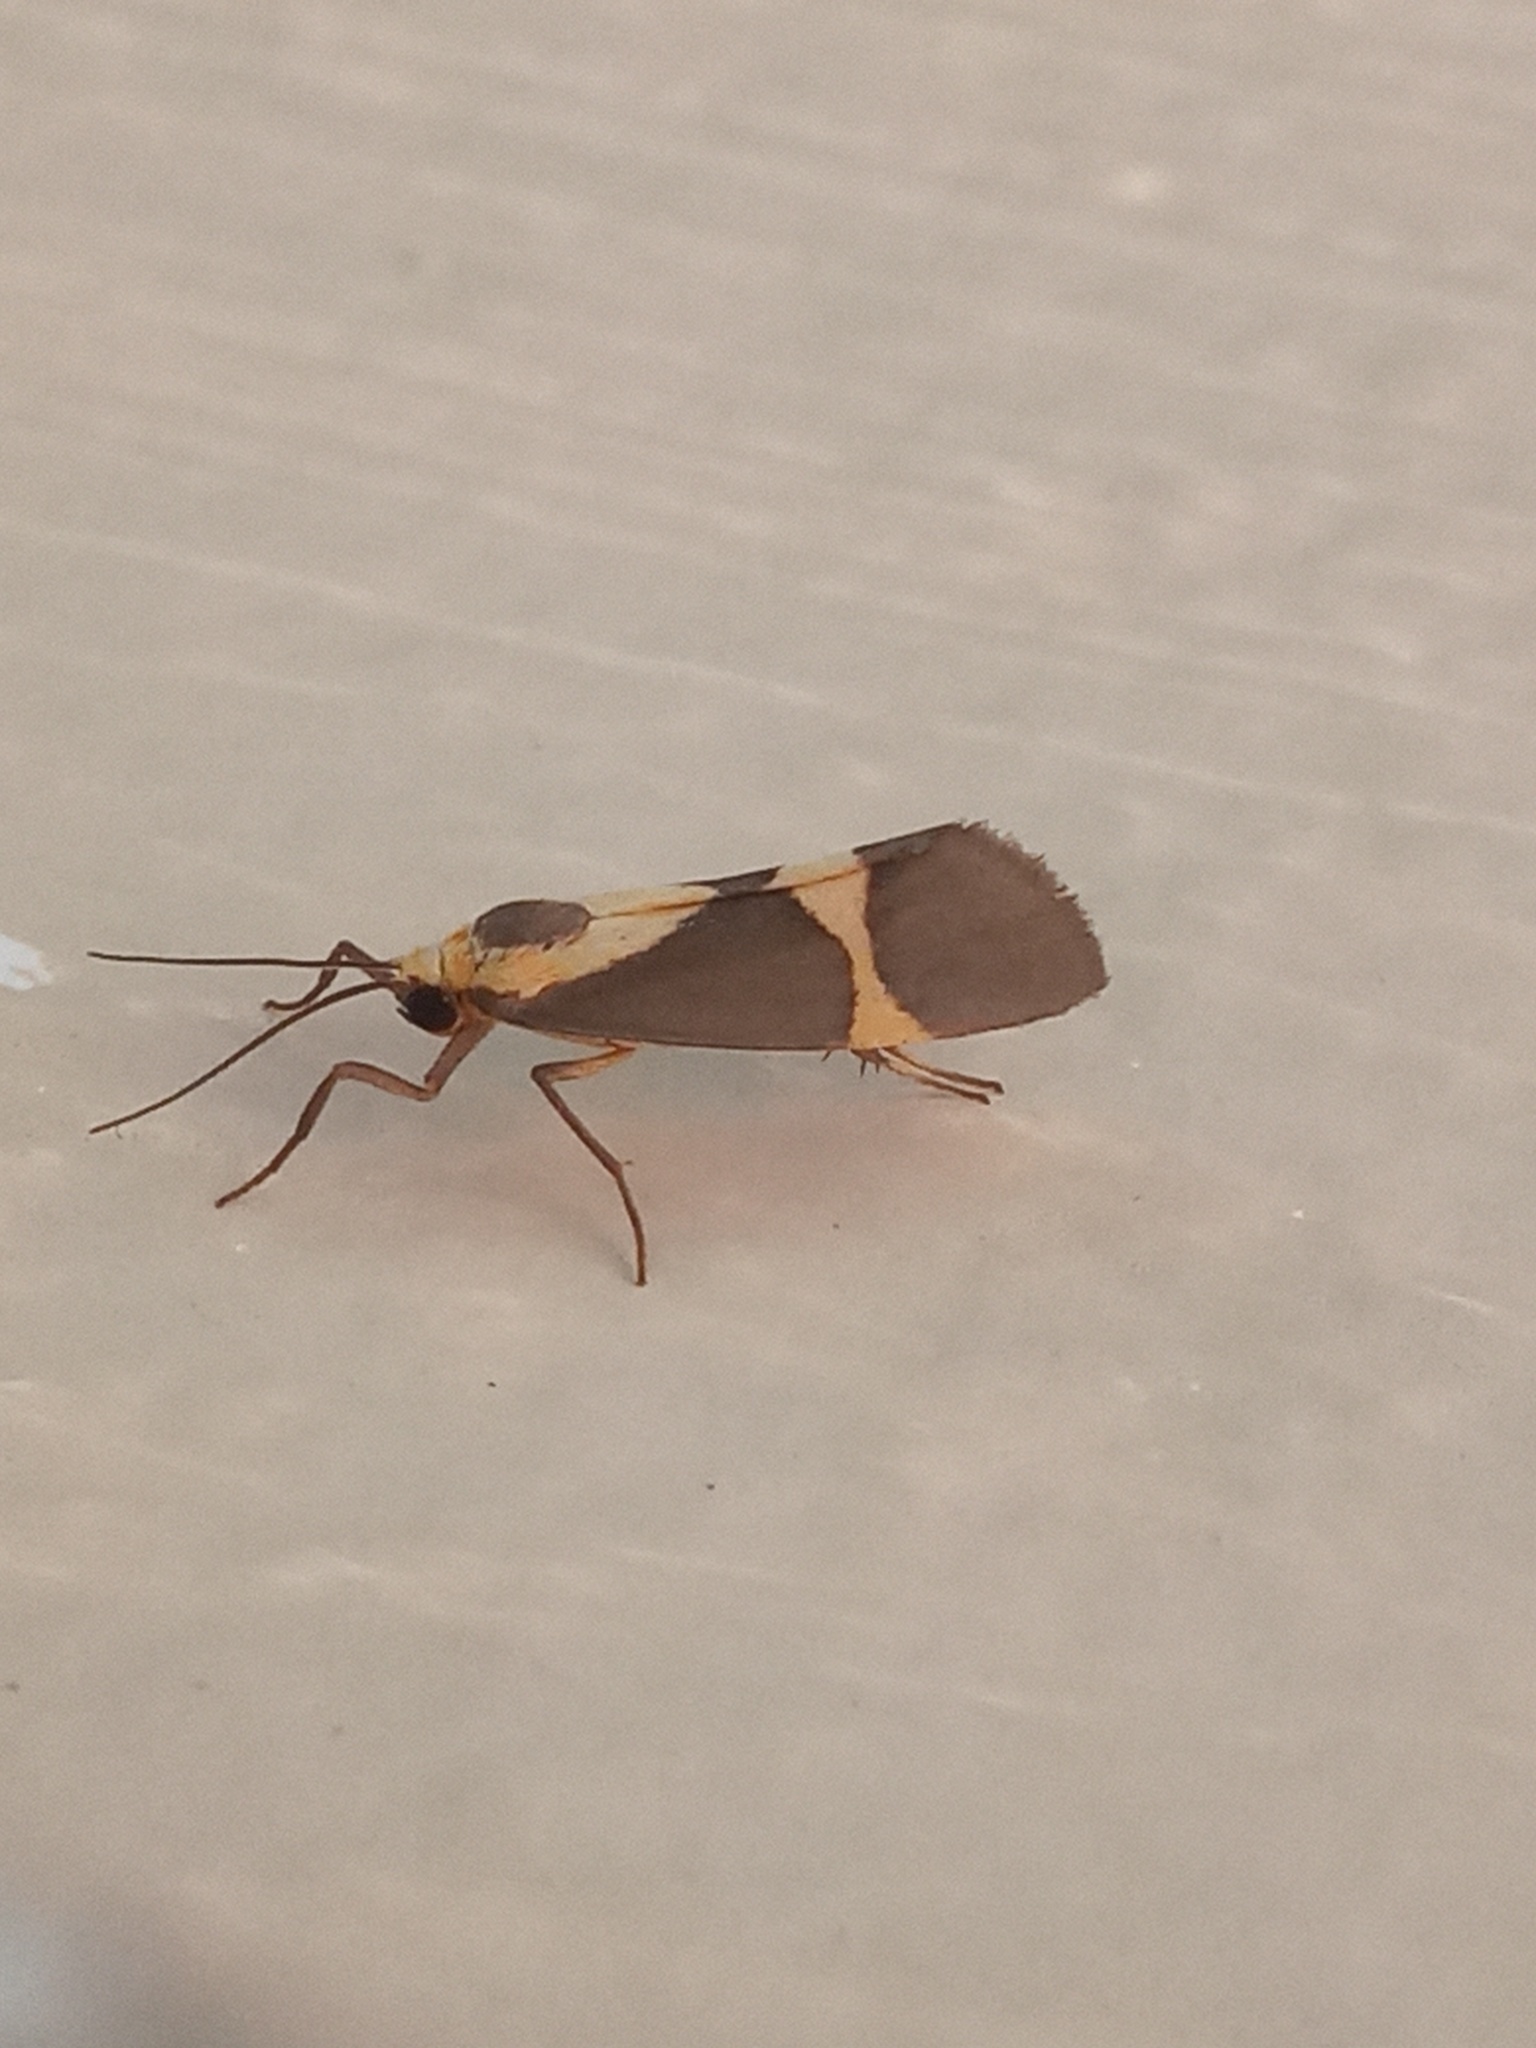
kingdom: Animalia
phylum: Arthropoda
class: Insecta
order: Lepidoptera
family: Erebidae
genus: Cisthene
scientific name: Cisthene subrufa
